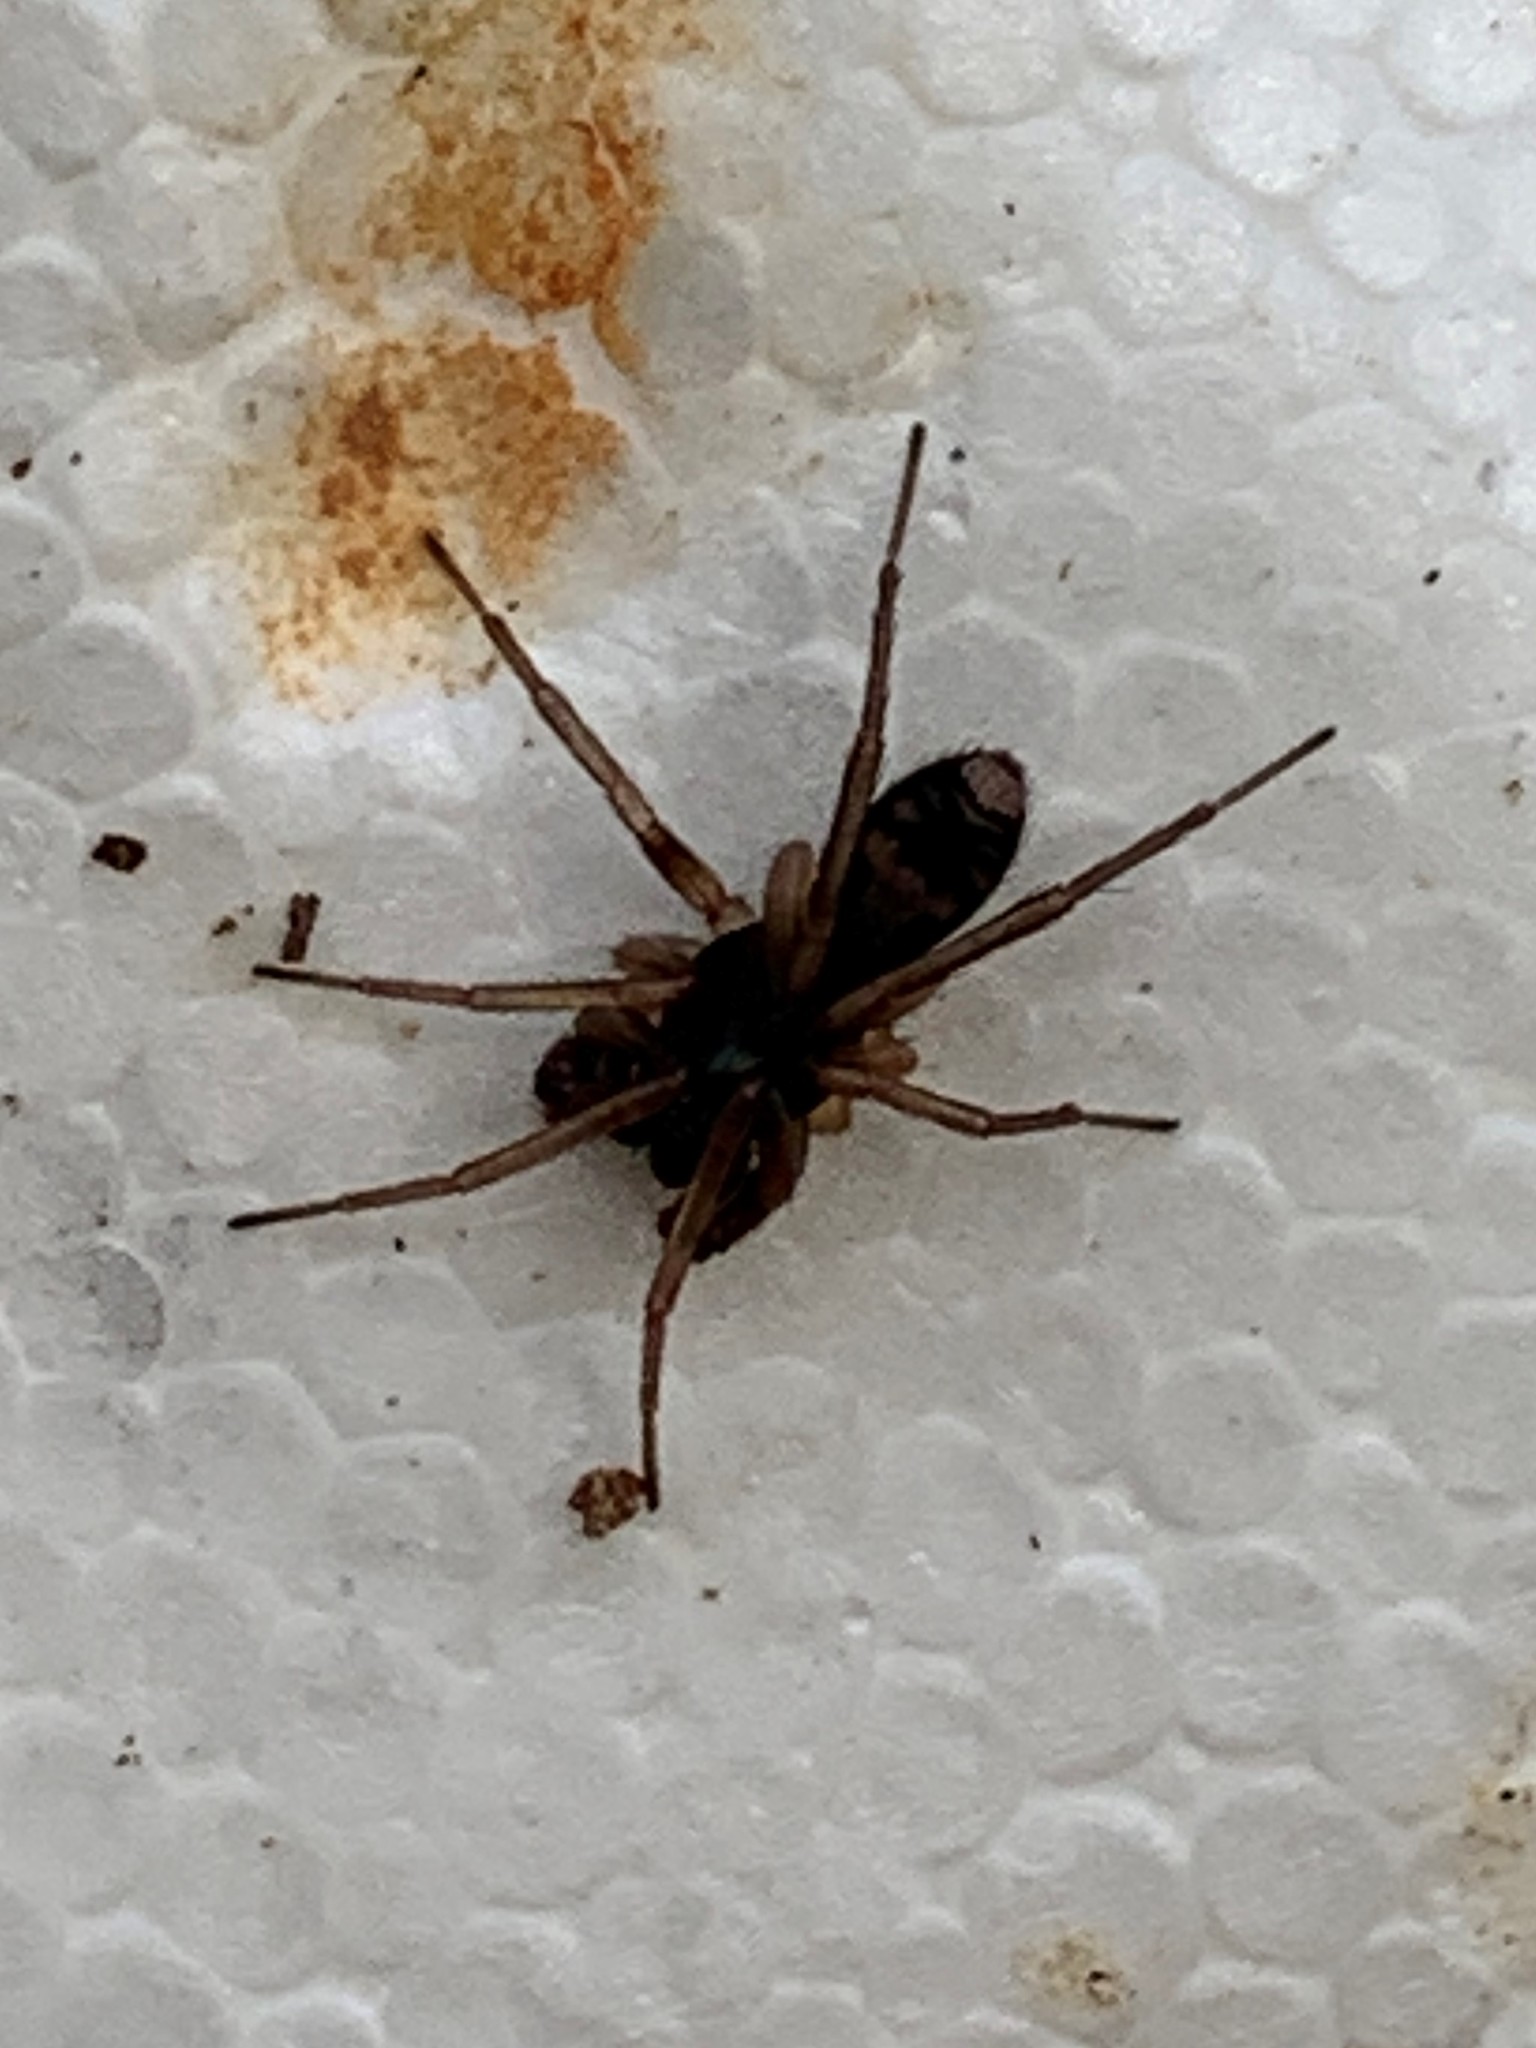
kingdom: Animalia
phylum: Arthropoda
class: Arachnida
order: Araneae
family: Corinnidae
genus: Falconina
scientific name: Falconina gracilis
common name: Antmimic spider
